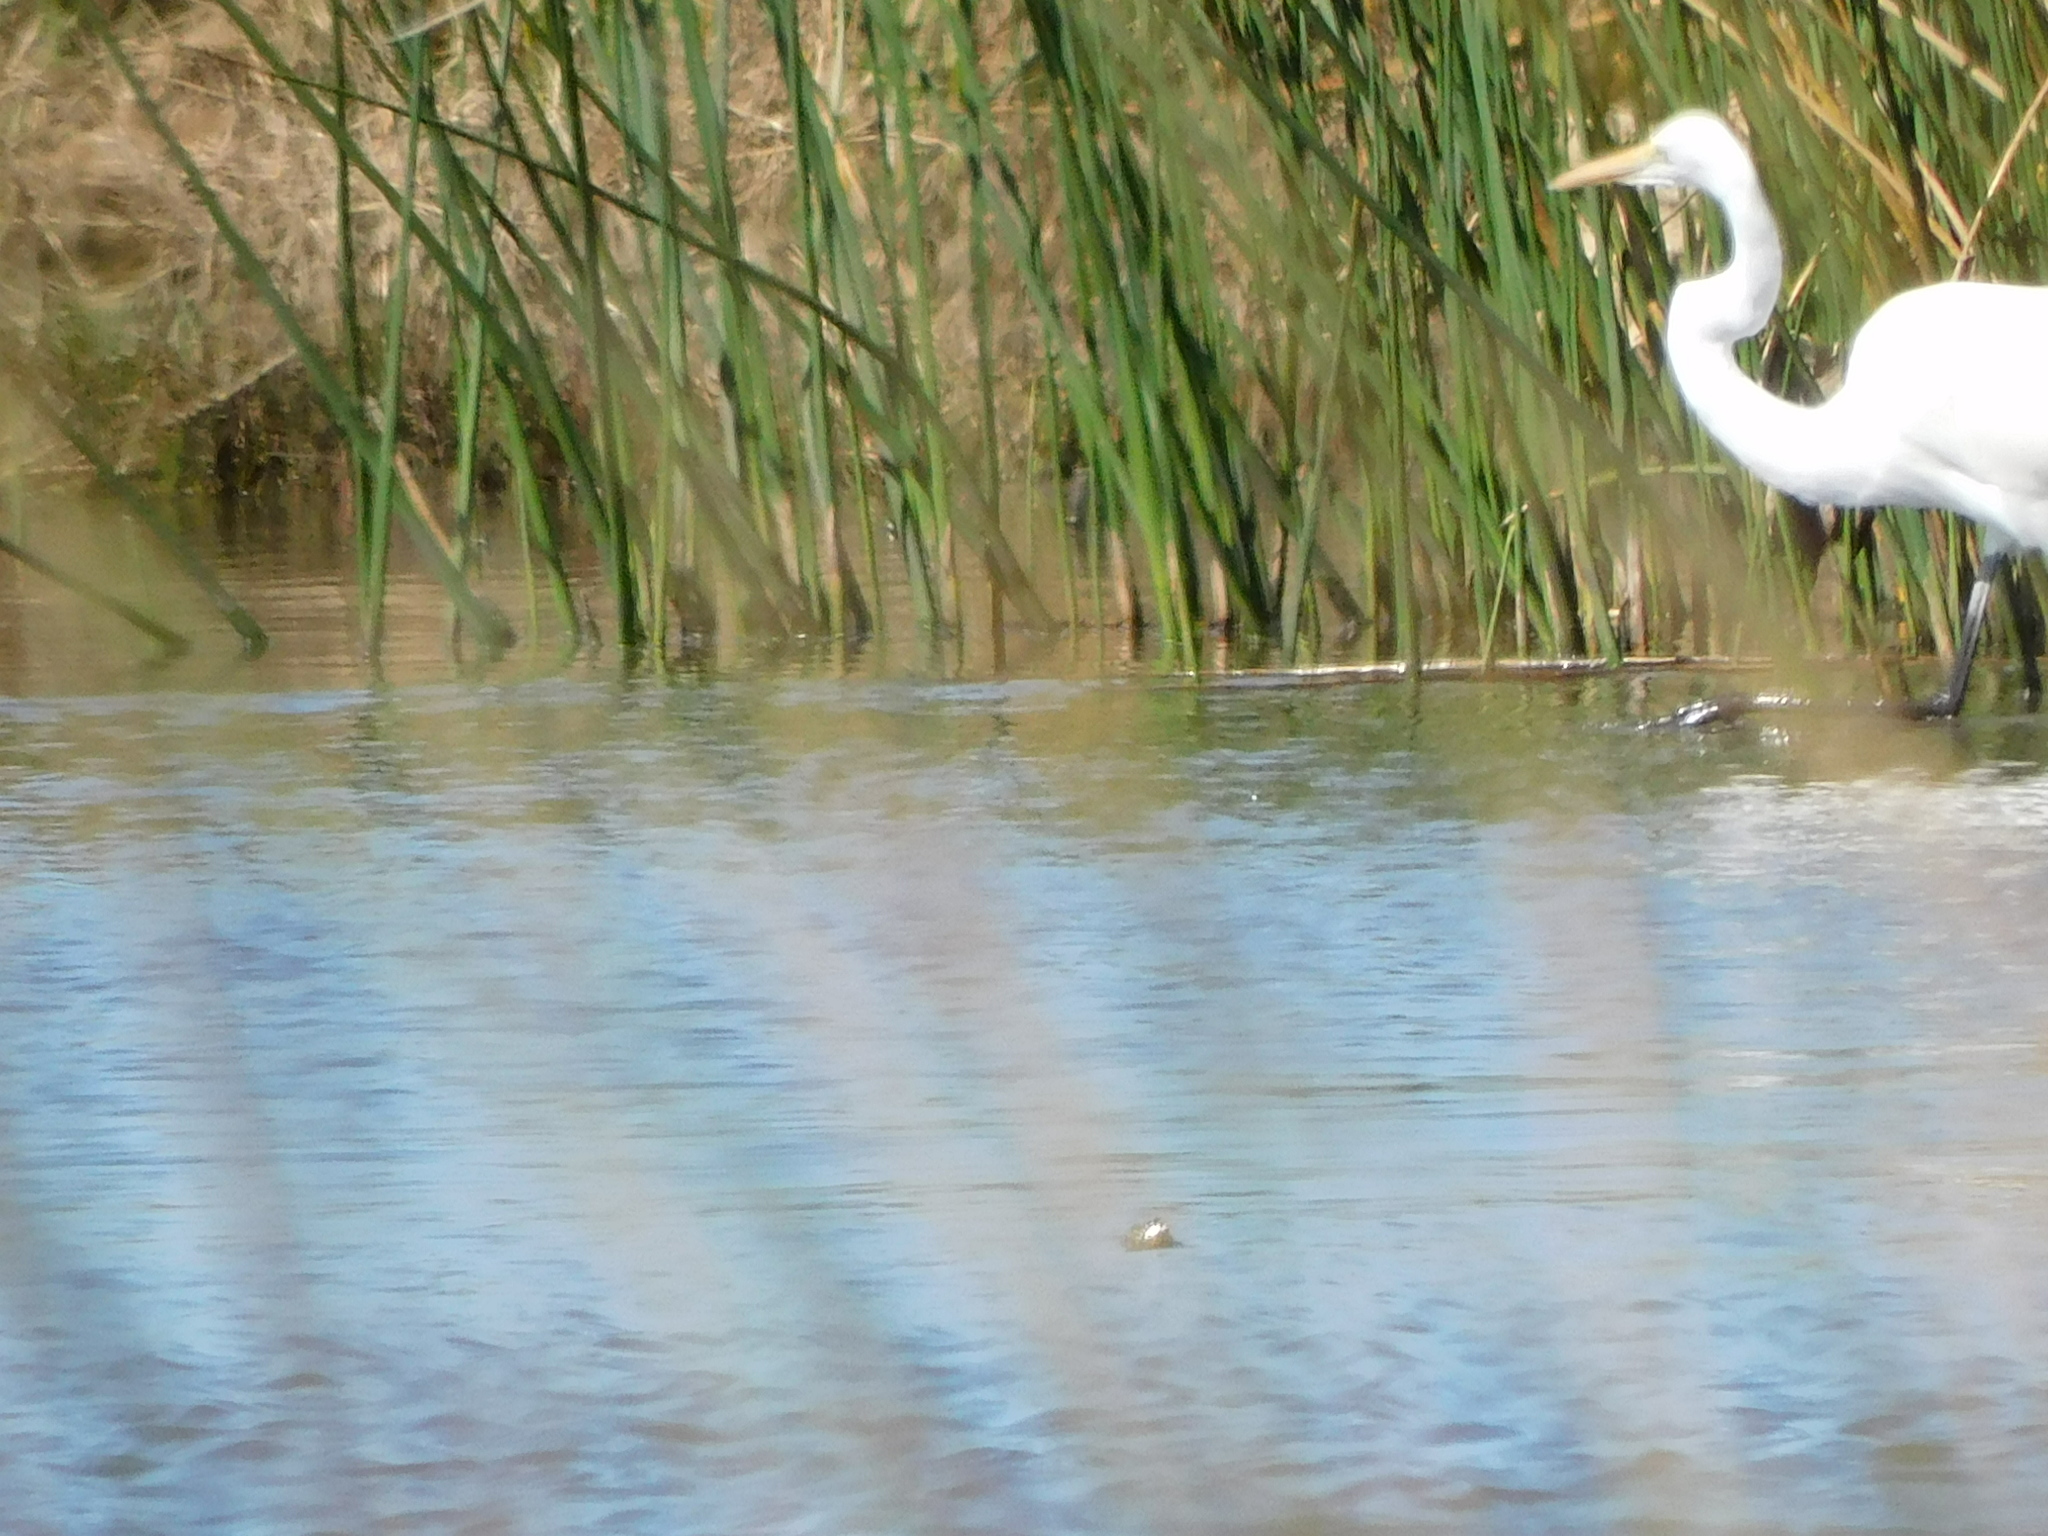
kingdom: Animalia
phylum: Chordata
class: Aves
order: Pelecaniformes
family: Ardeidae
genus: Ardea
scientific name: Ardea alba
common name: Great egret
